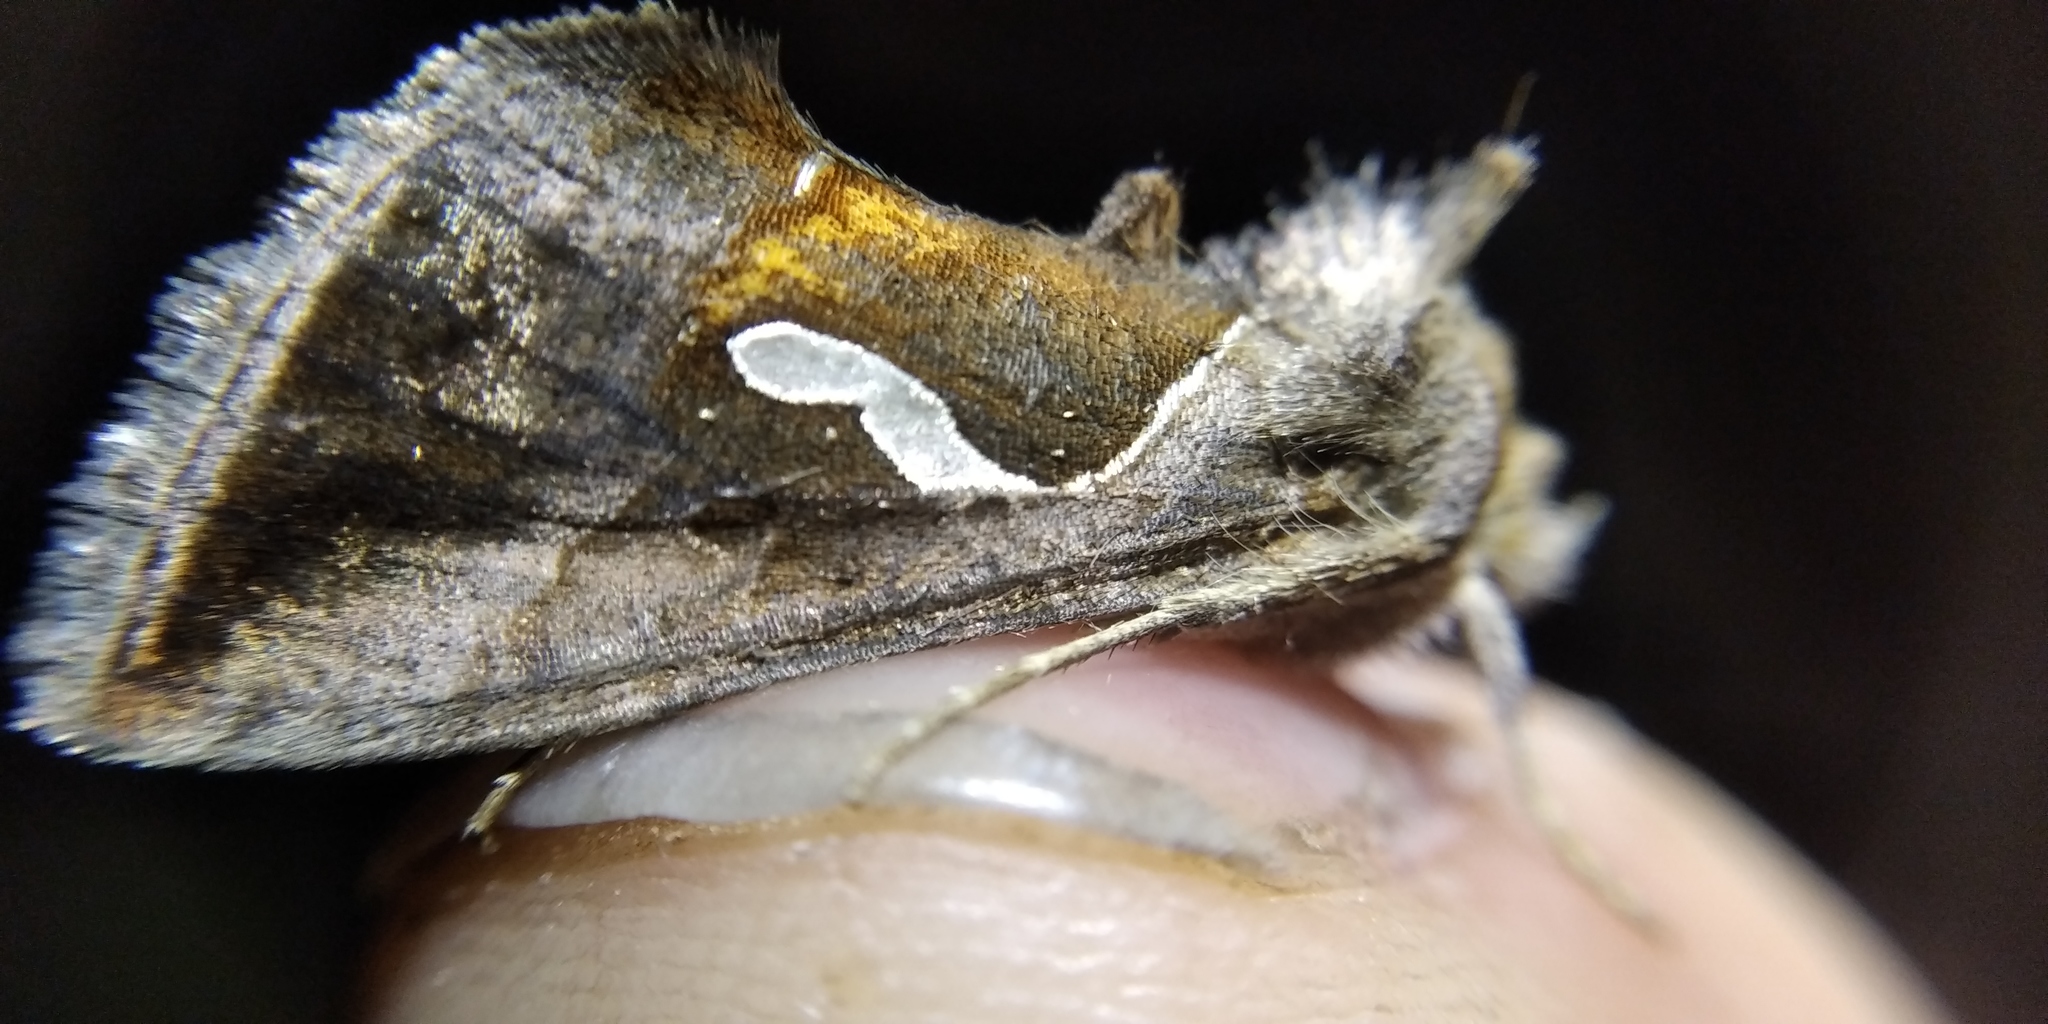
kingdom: Animalia
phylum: Arthropoda
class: Insecta
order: Lepidoptera
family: Noctuidae
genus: Macdunnoughia
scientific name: Macdunnoughia confusa
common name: Dewick's plusia
